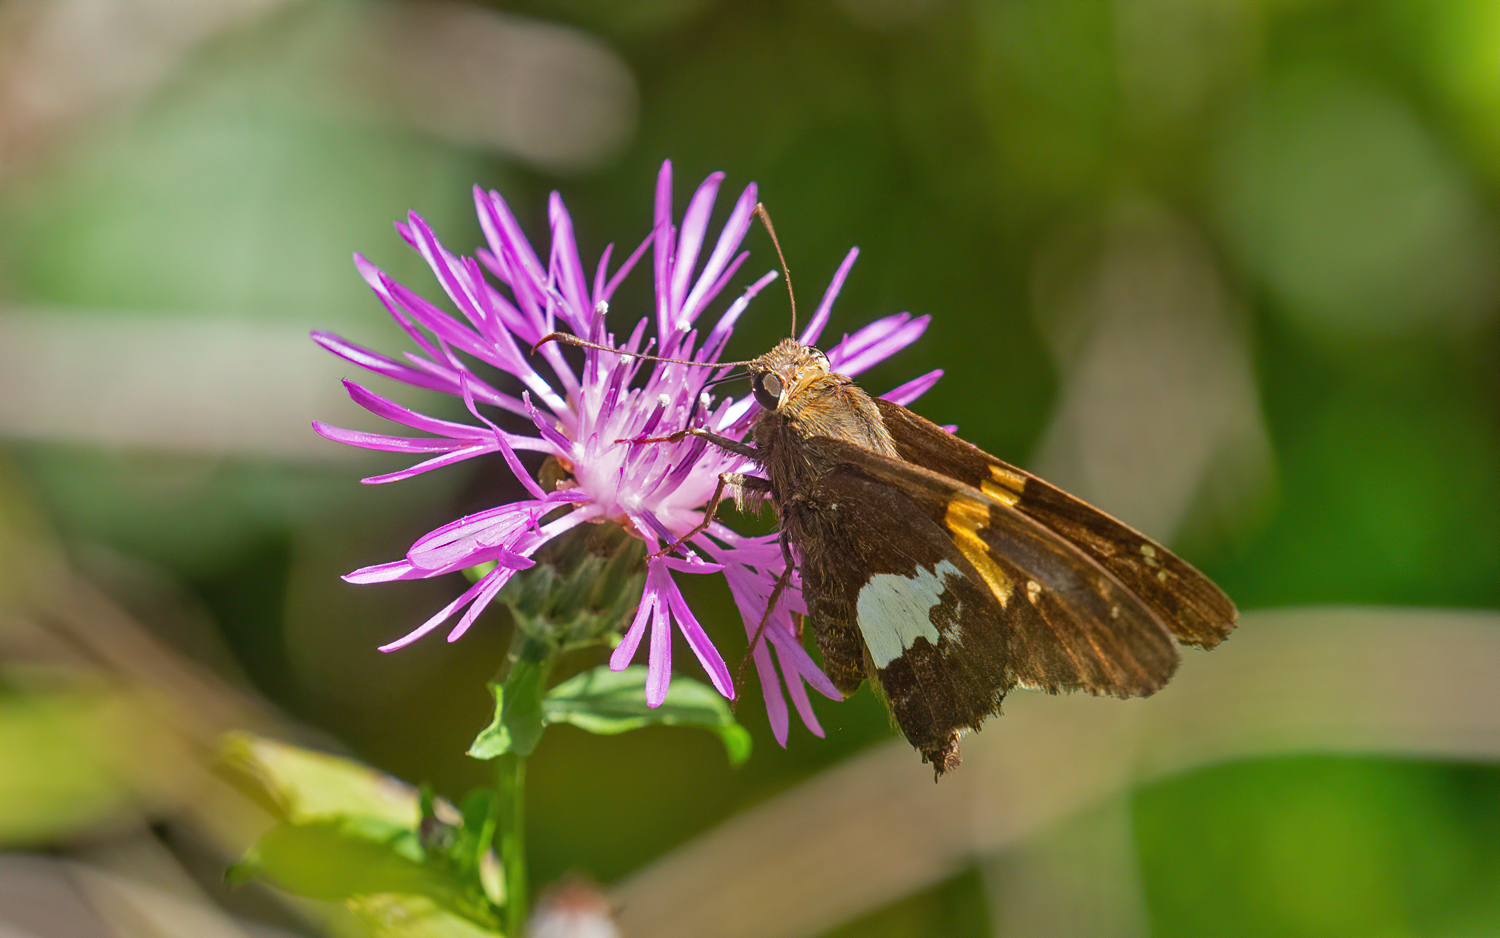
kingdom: Animalia
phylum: Arthropoda
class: Insecta
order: Lepidoptera
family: Hesperiidae
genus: Epargyreus
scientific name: Epargyreus clarus
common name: Silver-spotted skipper
